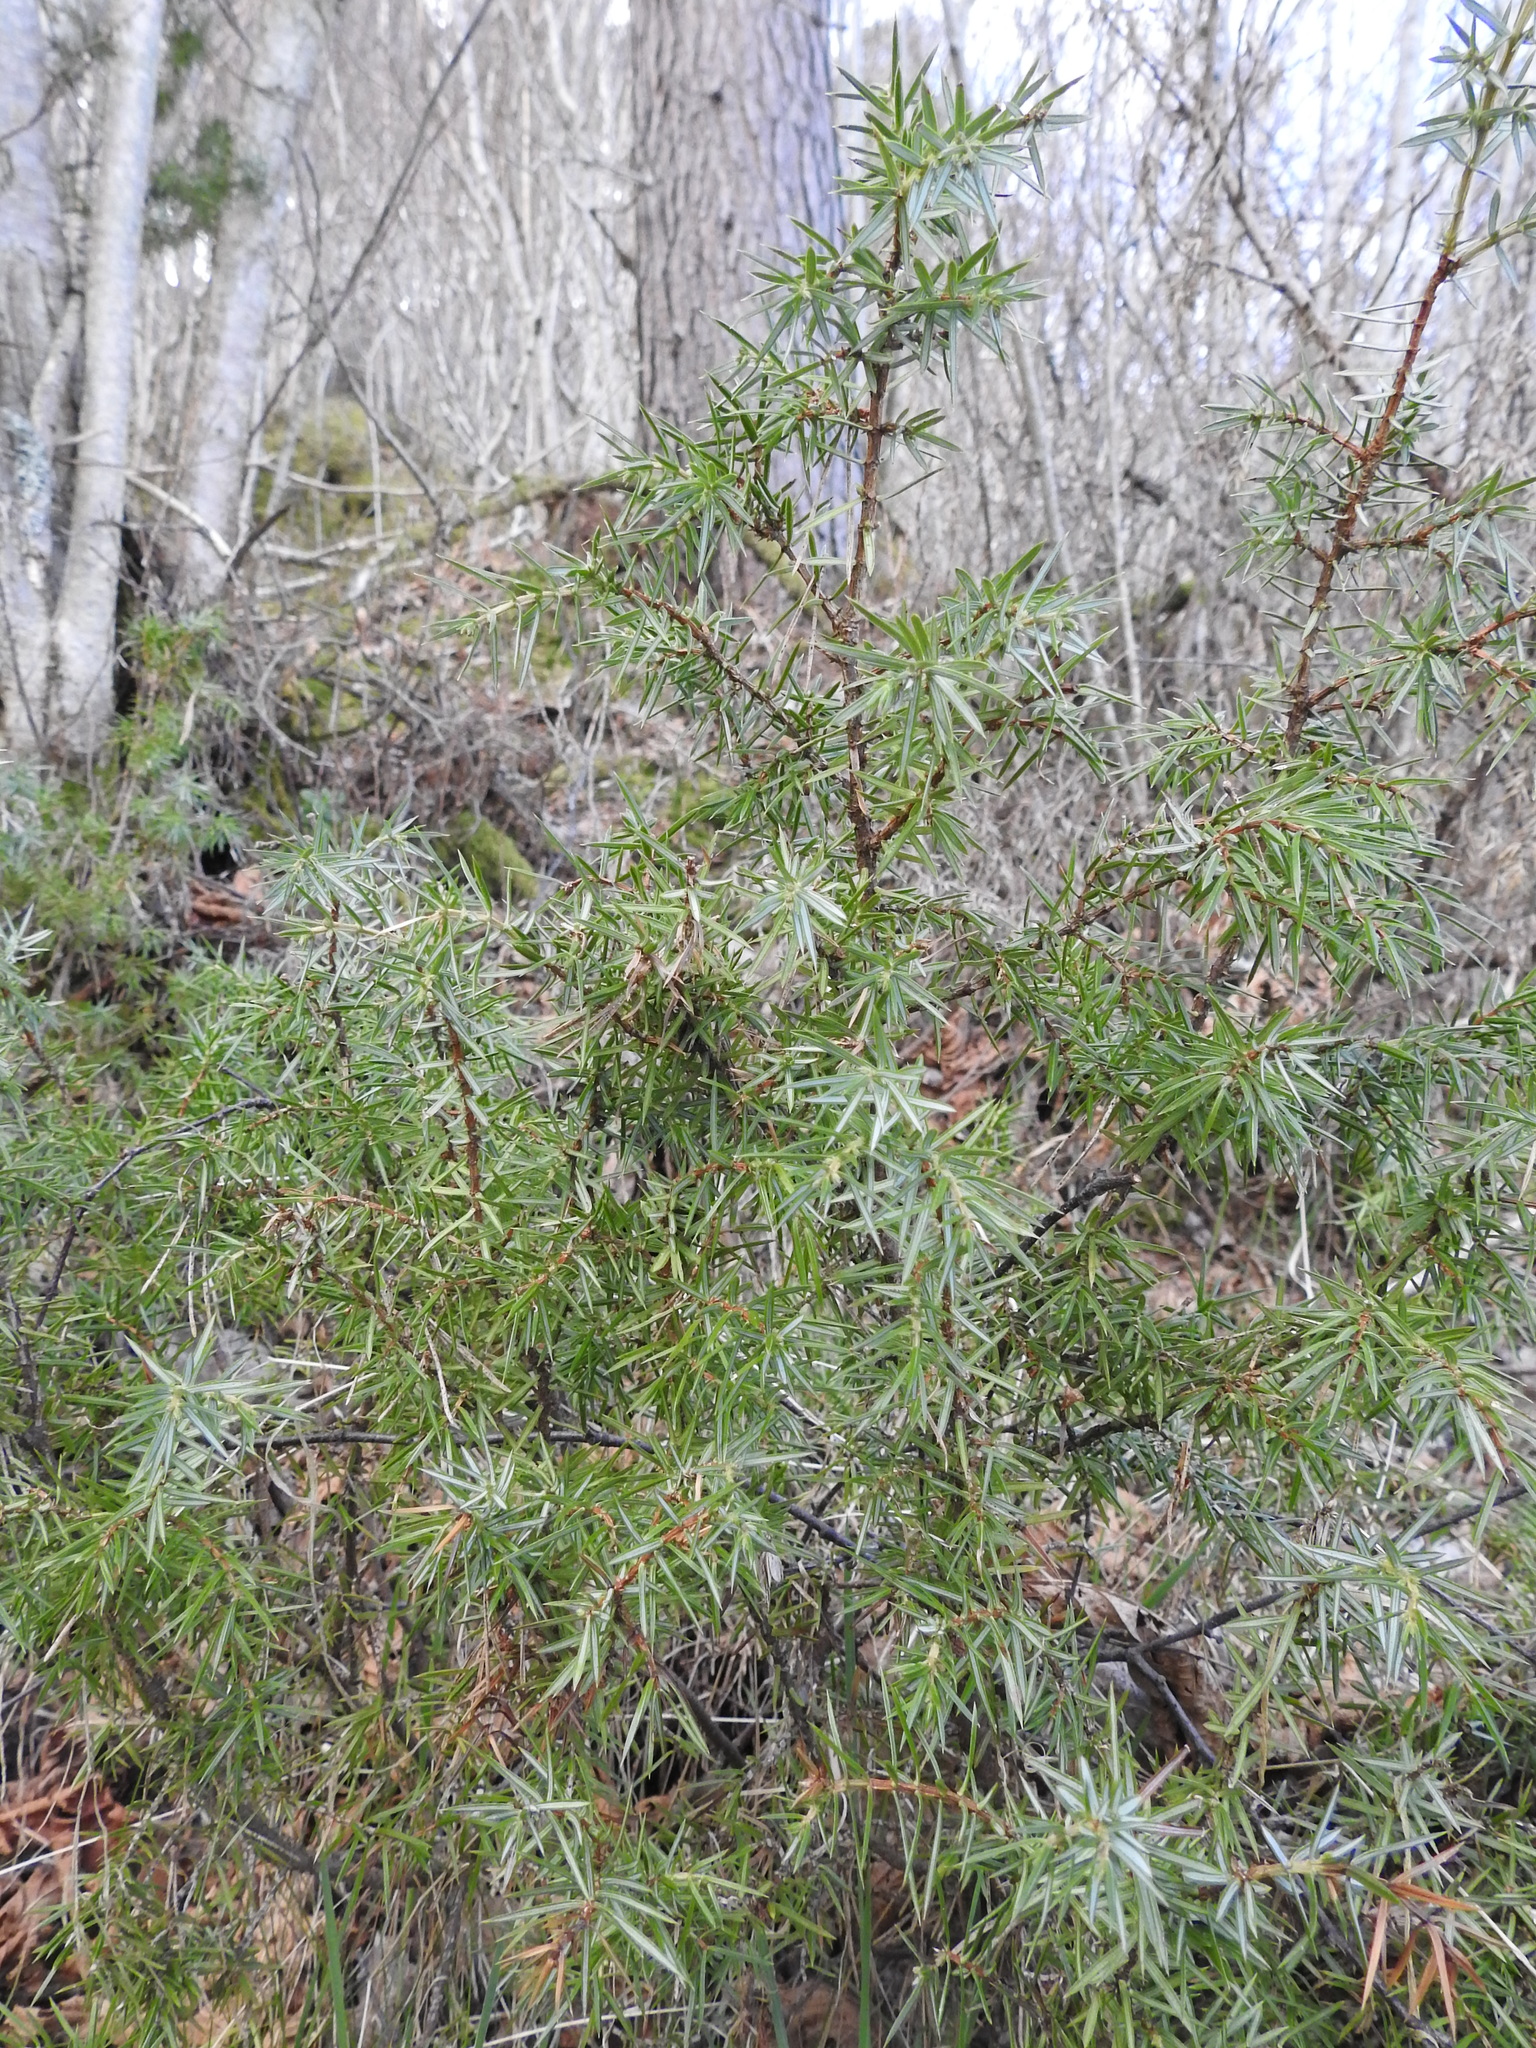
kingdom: Plantae
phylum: Tracheophyta
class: Pinopsida
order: Pinales
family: Cupressaceae
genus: Juniperus
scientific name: Juniperus communis
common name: Common juniper
